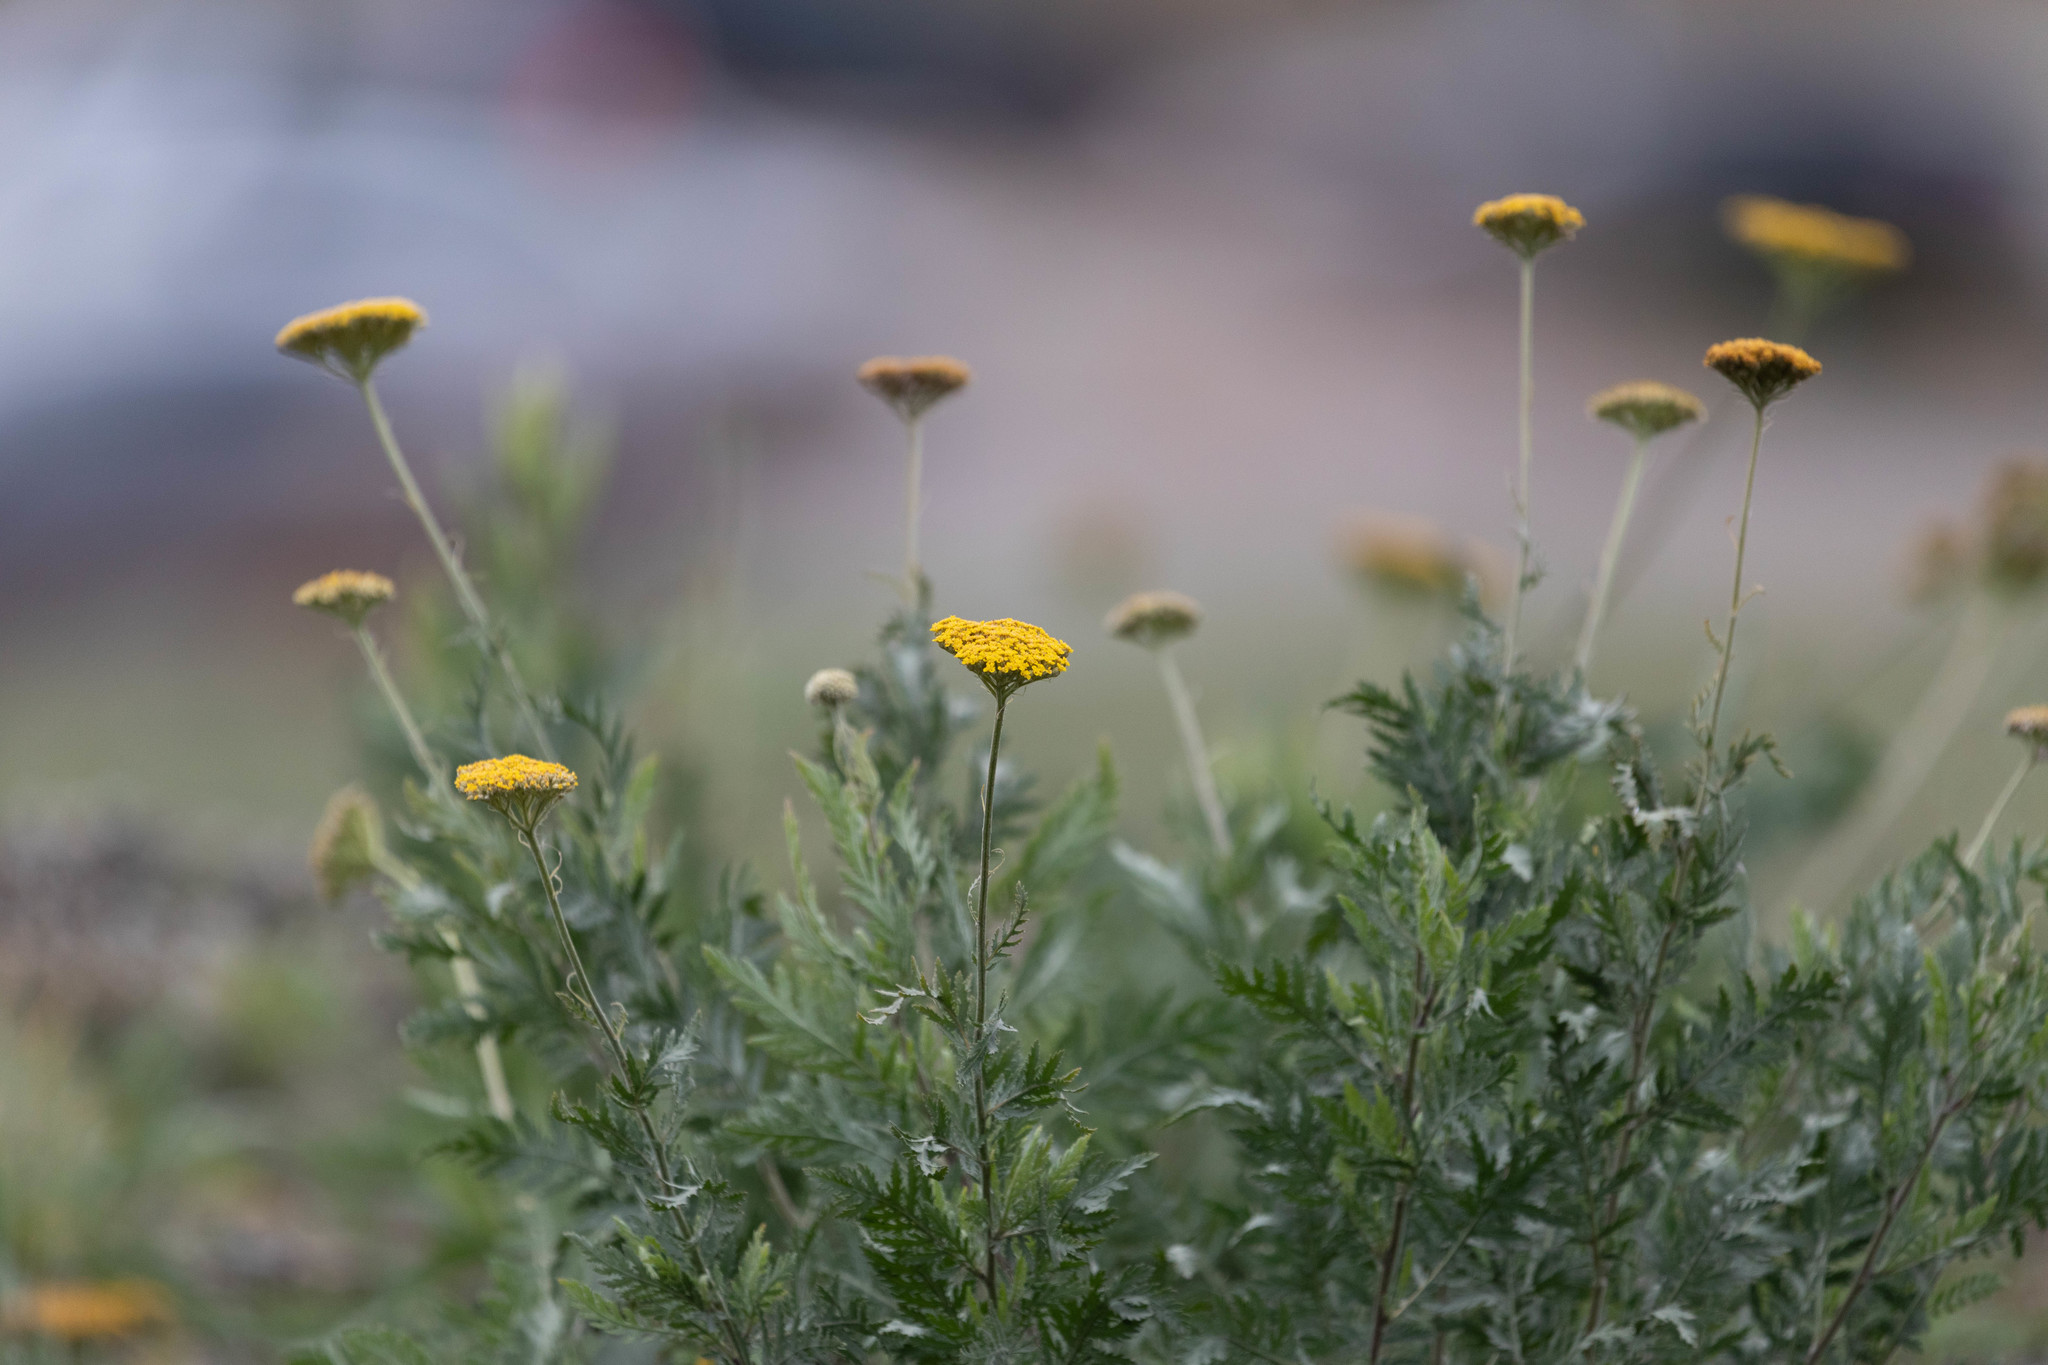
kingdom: Plantae
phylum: Tracheophyta
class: Magnoliopsida
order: Asterales
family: Asteraceae
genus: Achillea
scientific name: Achillea filipendulina
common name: Fernleaf yarrow
